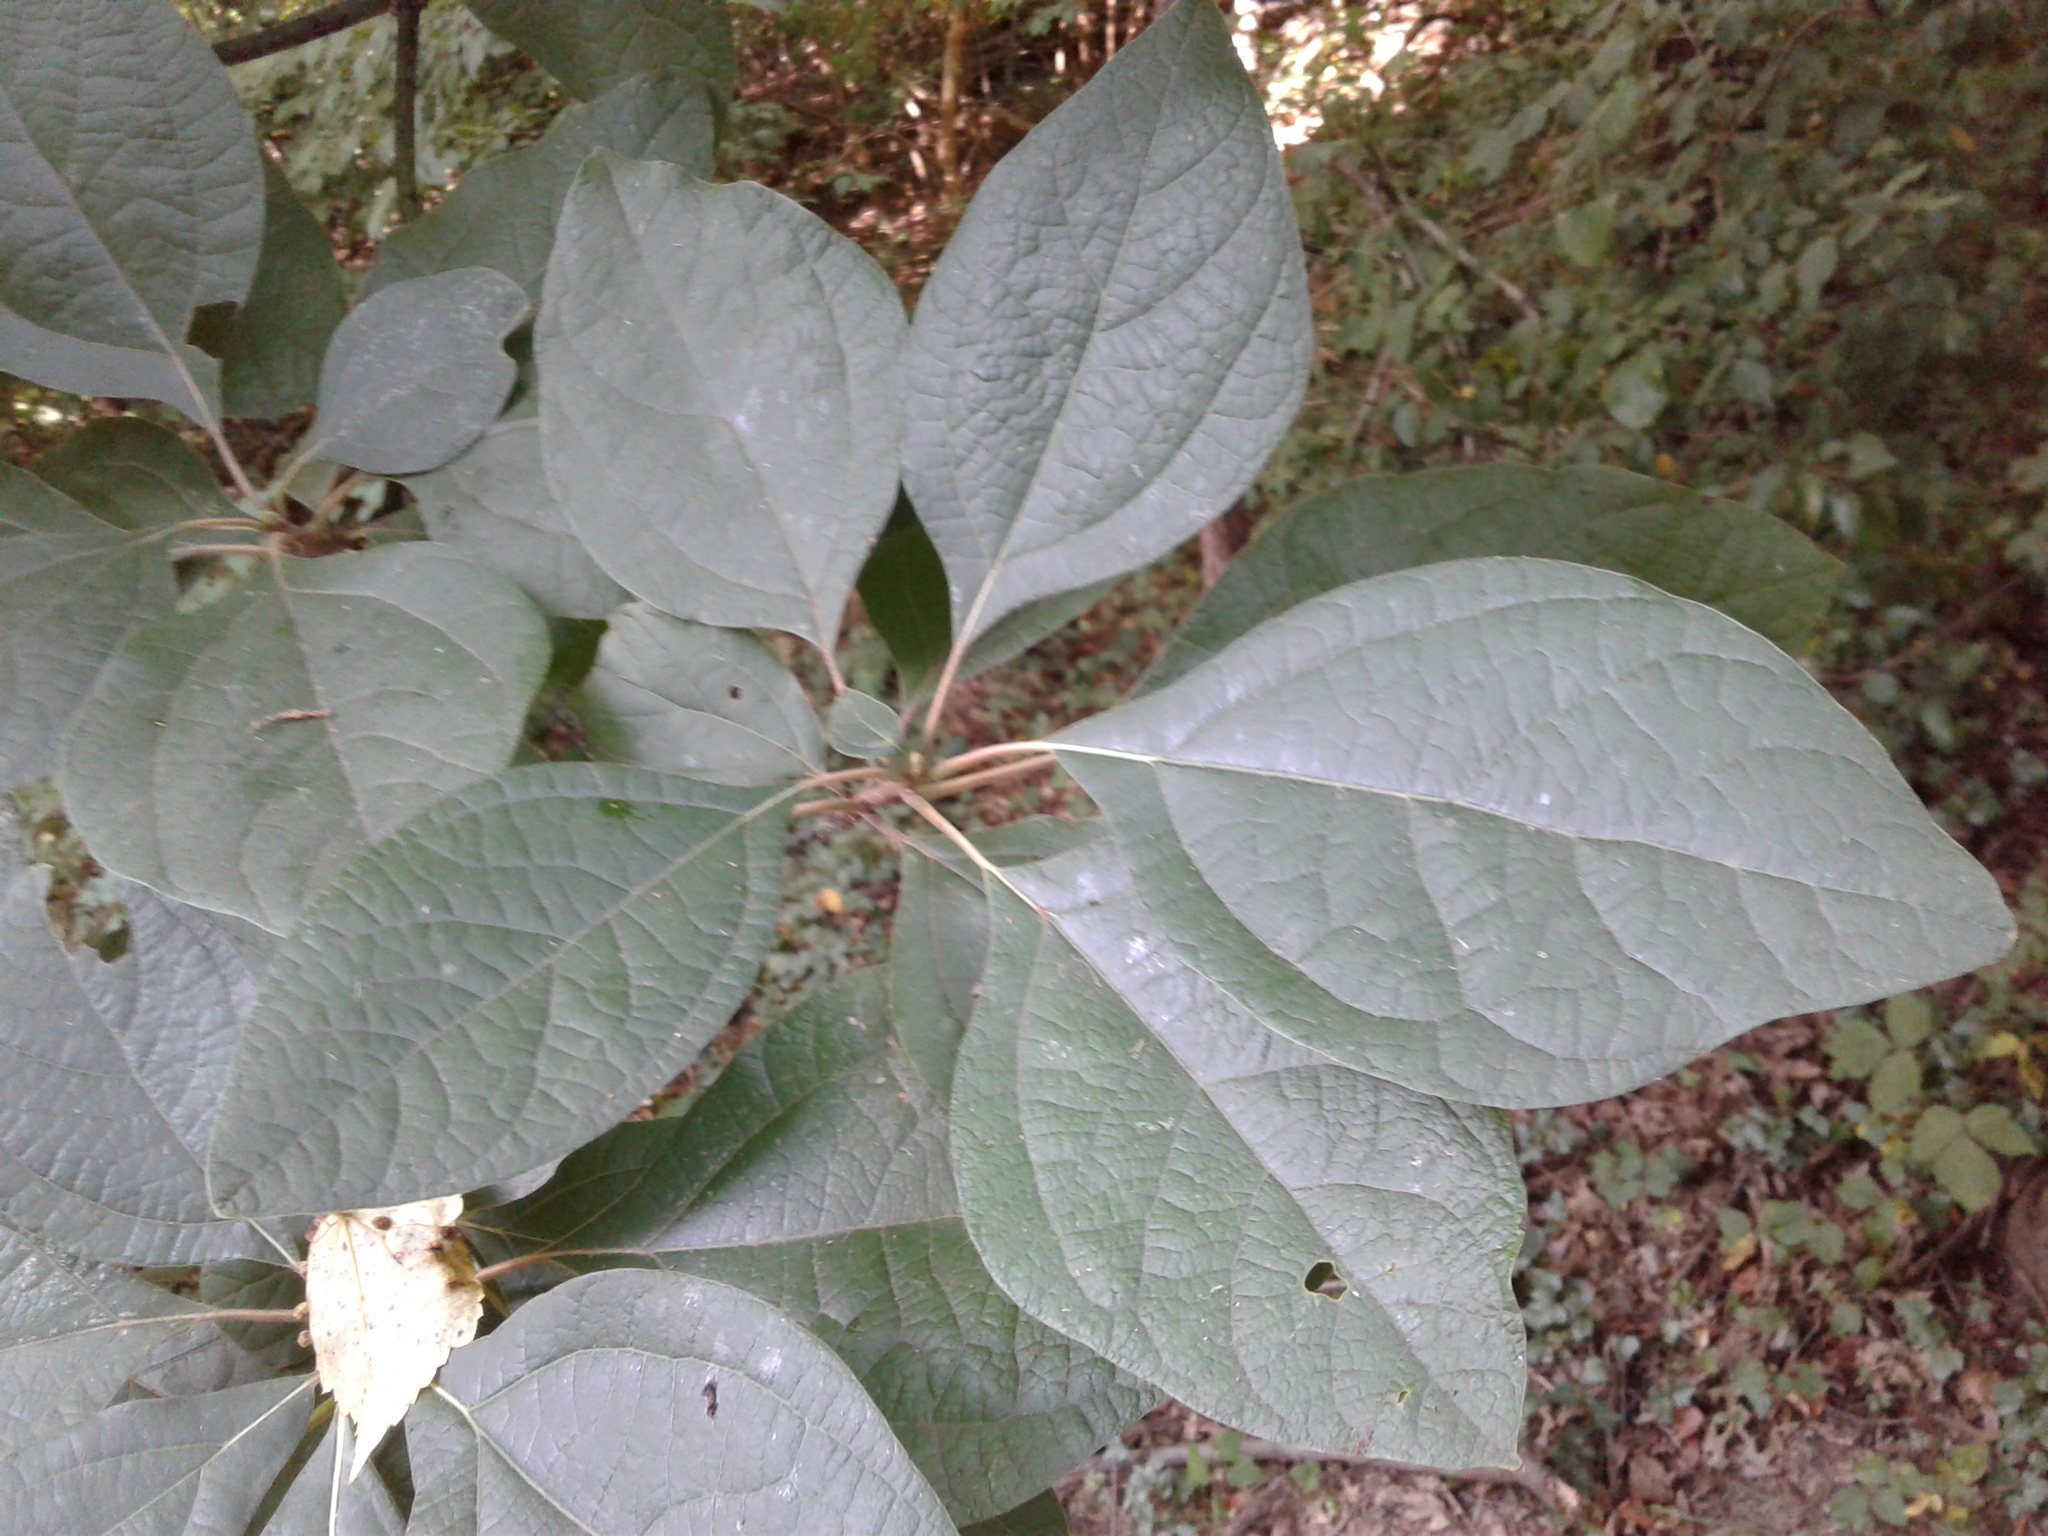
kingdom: Plantae
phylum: Tracheophyta
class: Magnoliopsida
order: Laurales
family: Lauraceae
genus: Sassafras
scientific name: Sassafras albidum
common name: Sassafras
